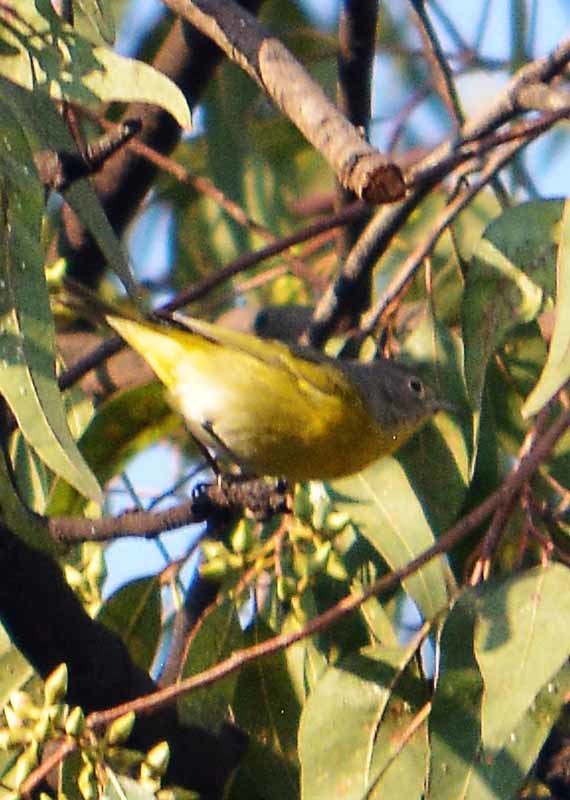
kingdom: Animalia
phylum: Chordata
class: Aves
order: Passeriformes
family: Parulidae
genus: Leiothlypis
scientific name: Leiothlypis ruficapilla
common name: Nashville warbler
